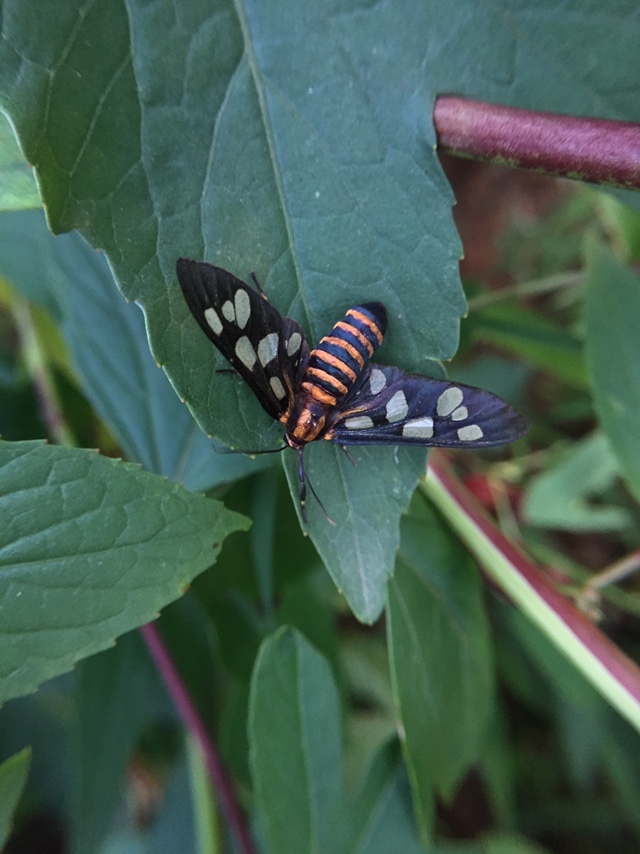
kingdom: Animalia
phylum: Arthropoda
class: Insecta
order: Lepidoptera
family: Erebidae
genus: Amata
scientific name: Amata passalis
